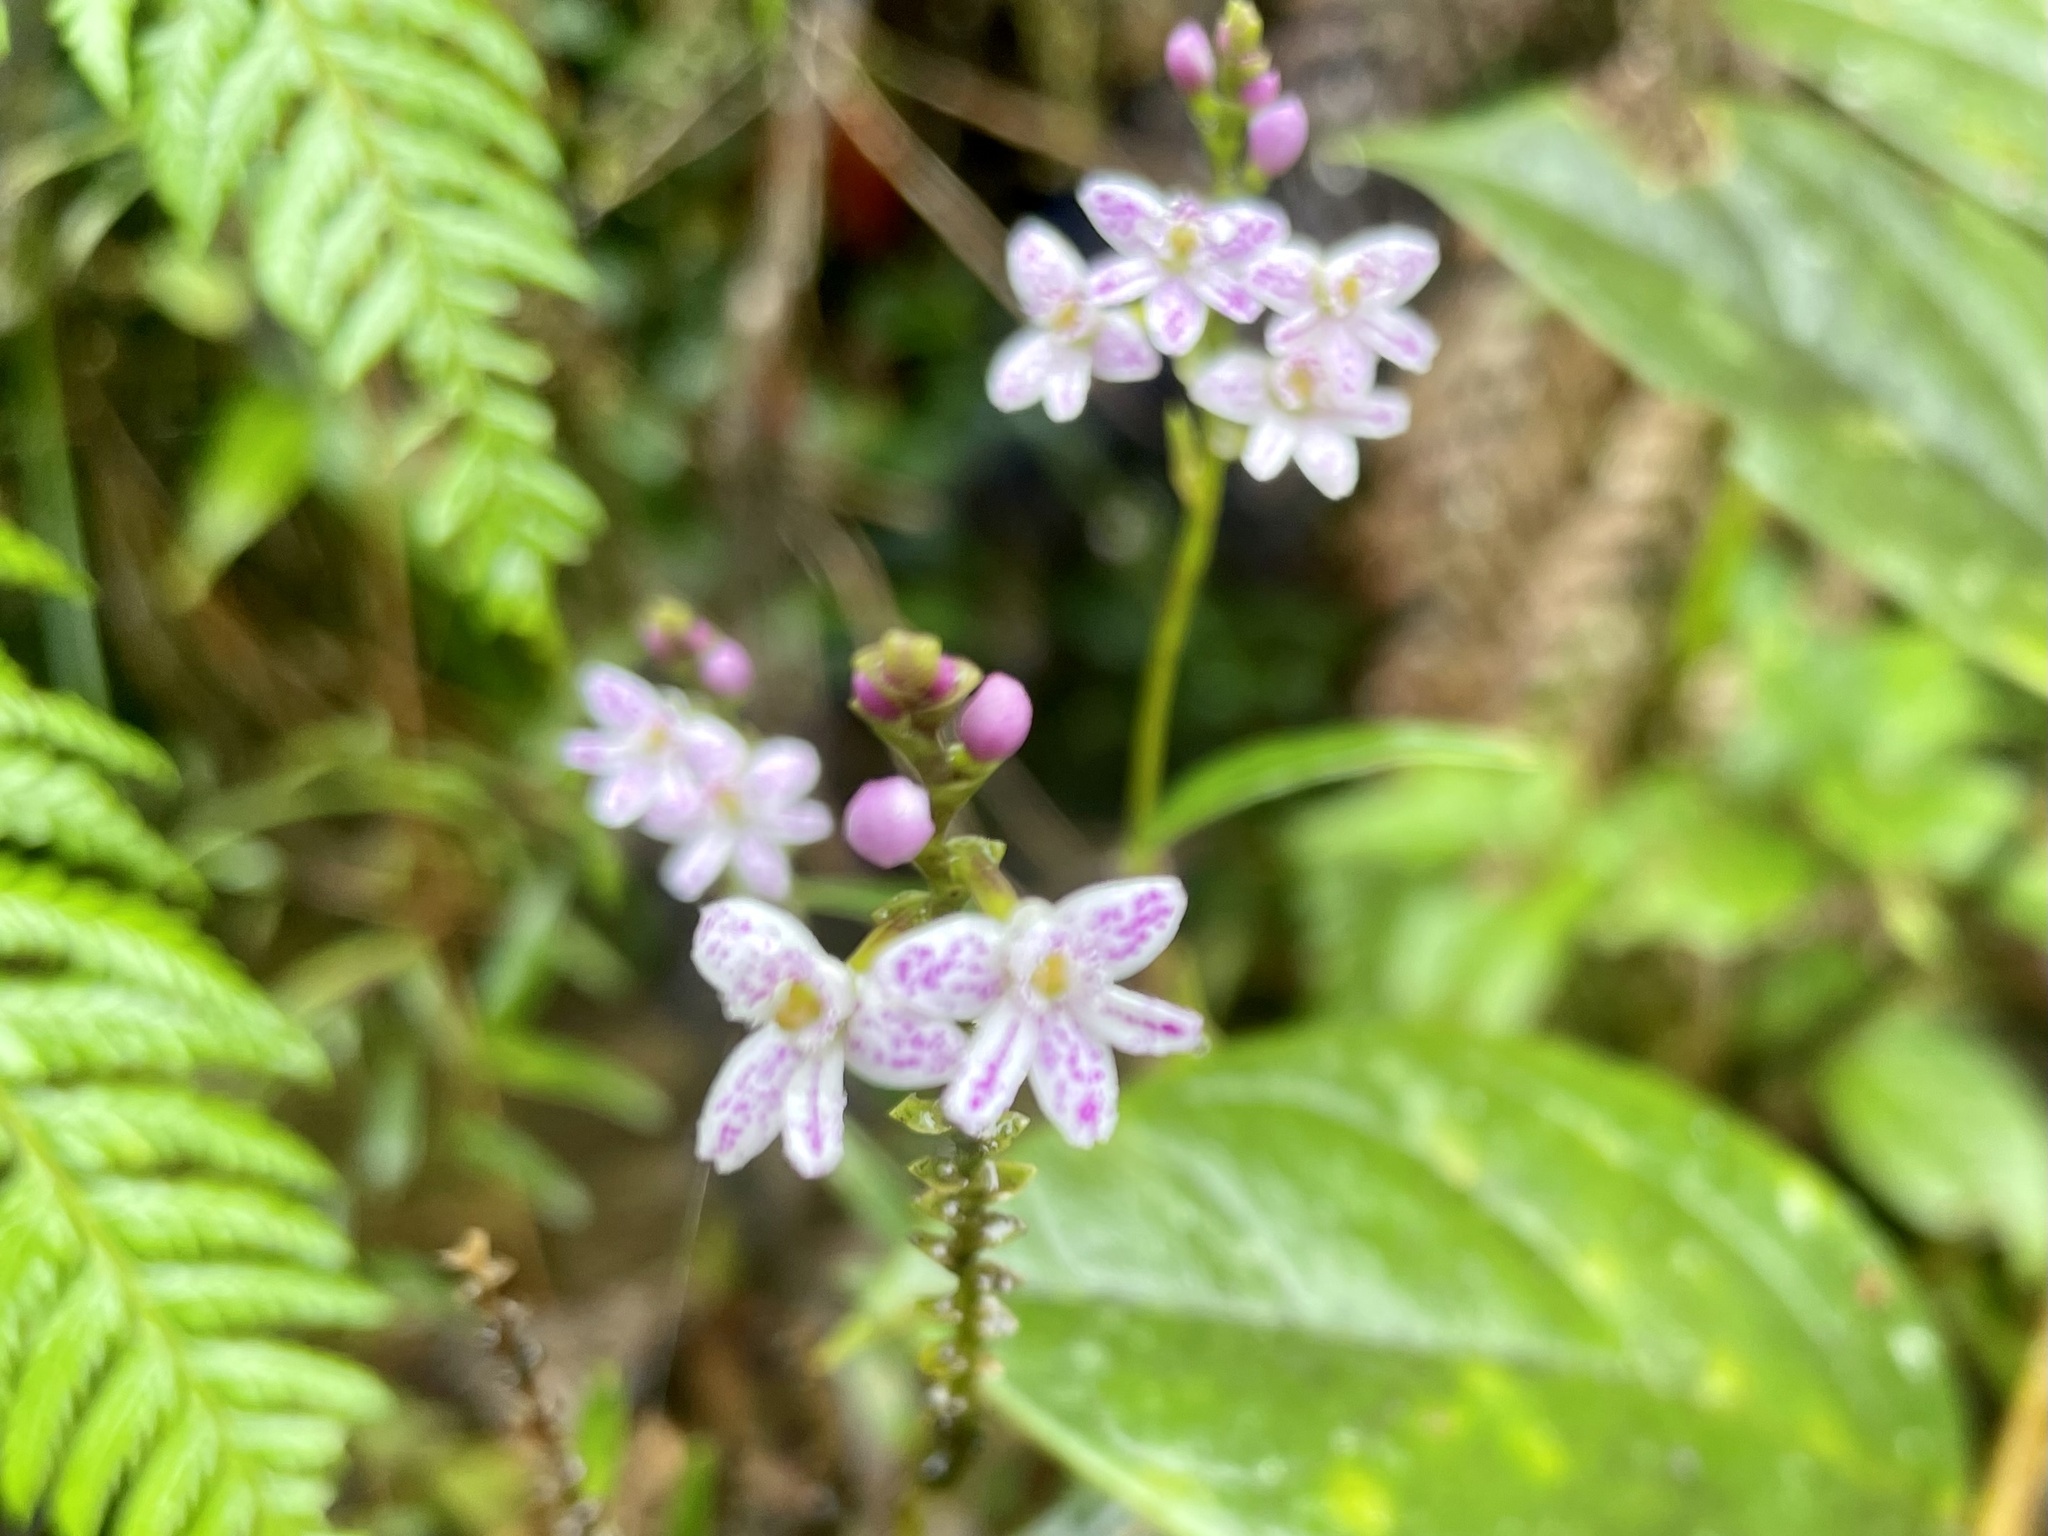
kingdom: Plantae
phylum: Tracheophyta
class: Liliopsida
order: Asparagales
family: Orchidaceae
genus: Epidendrum
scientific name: Epidendrum fimbriatum
